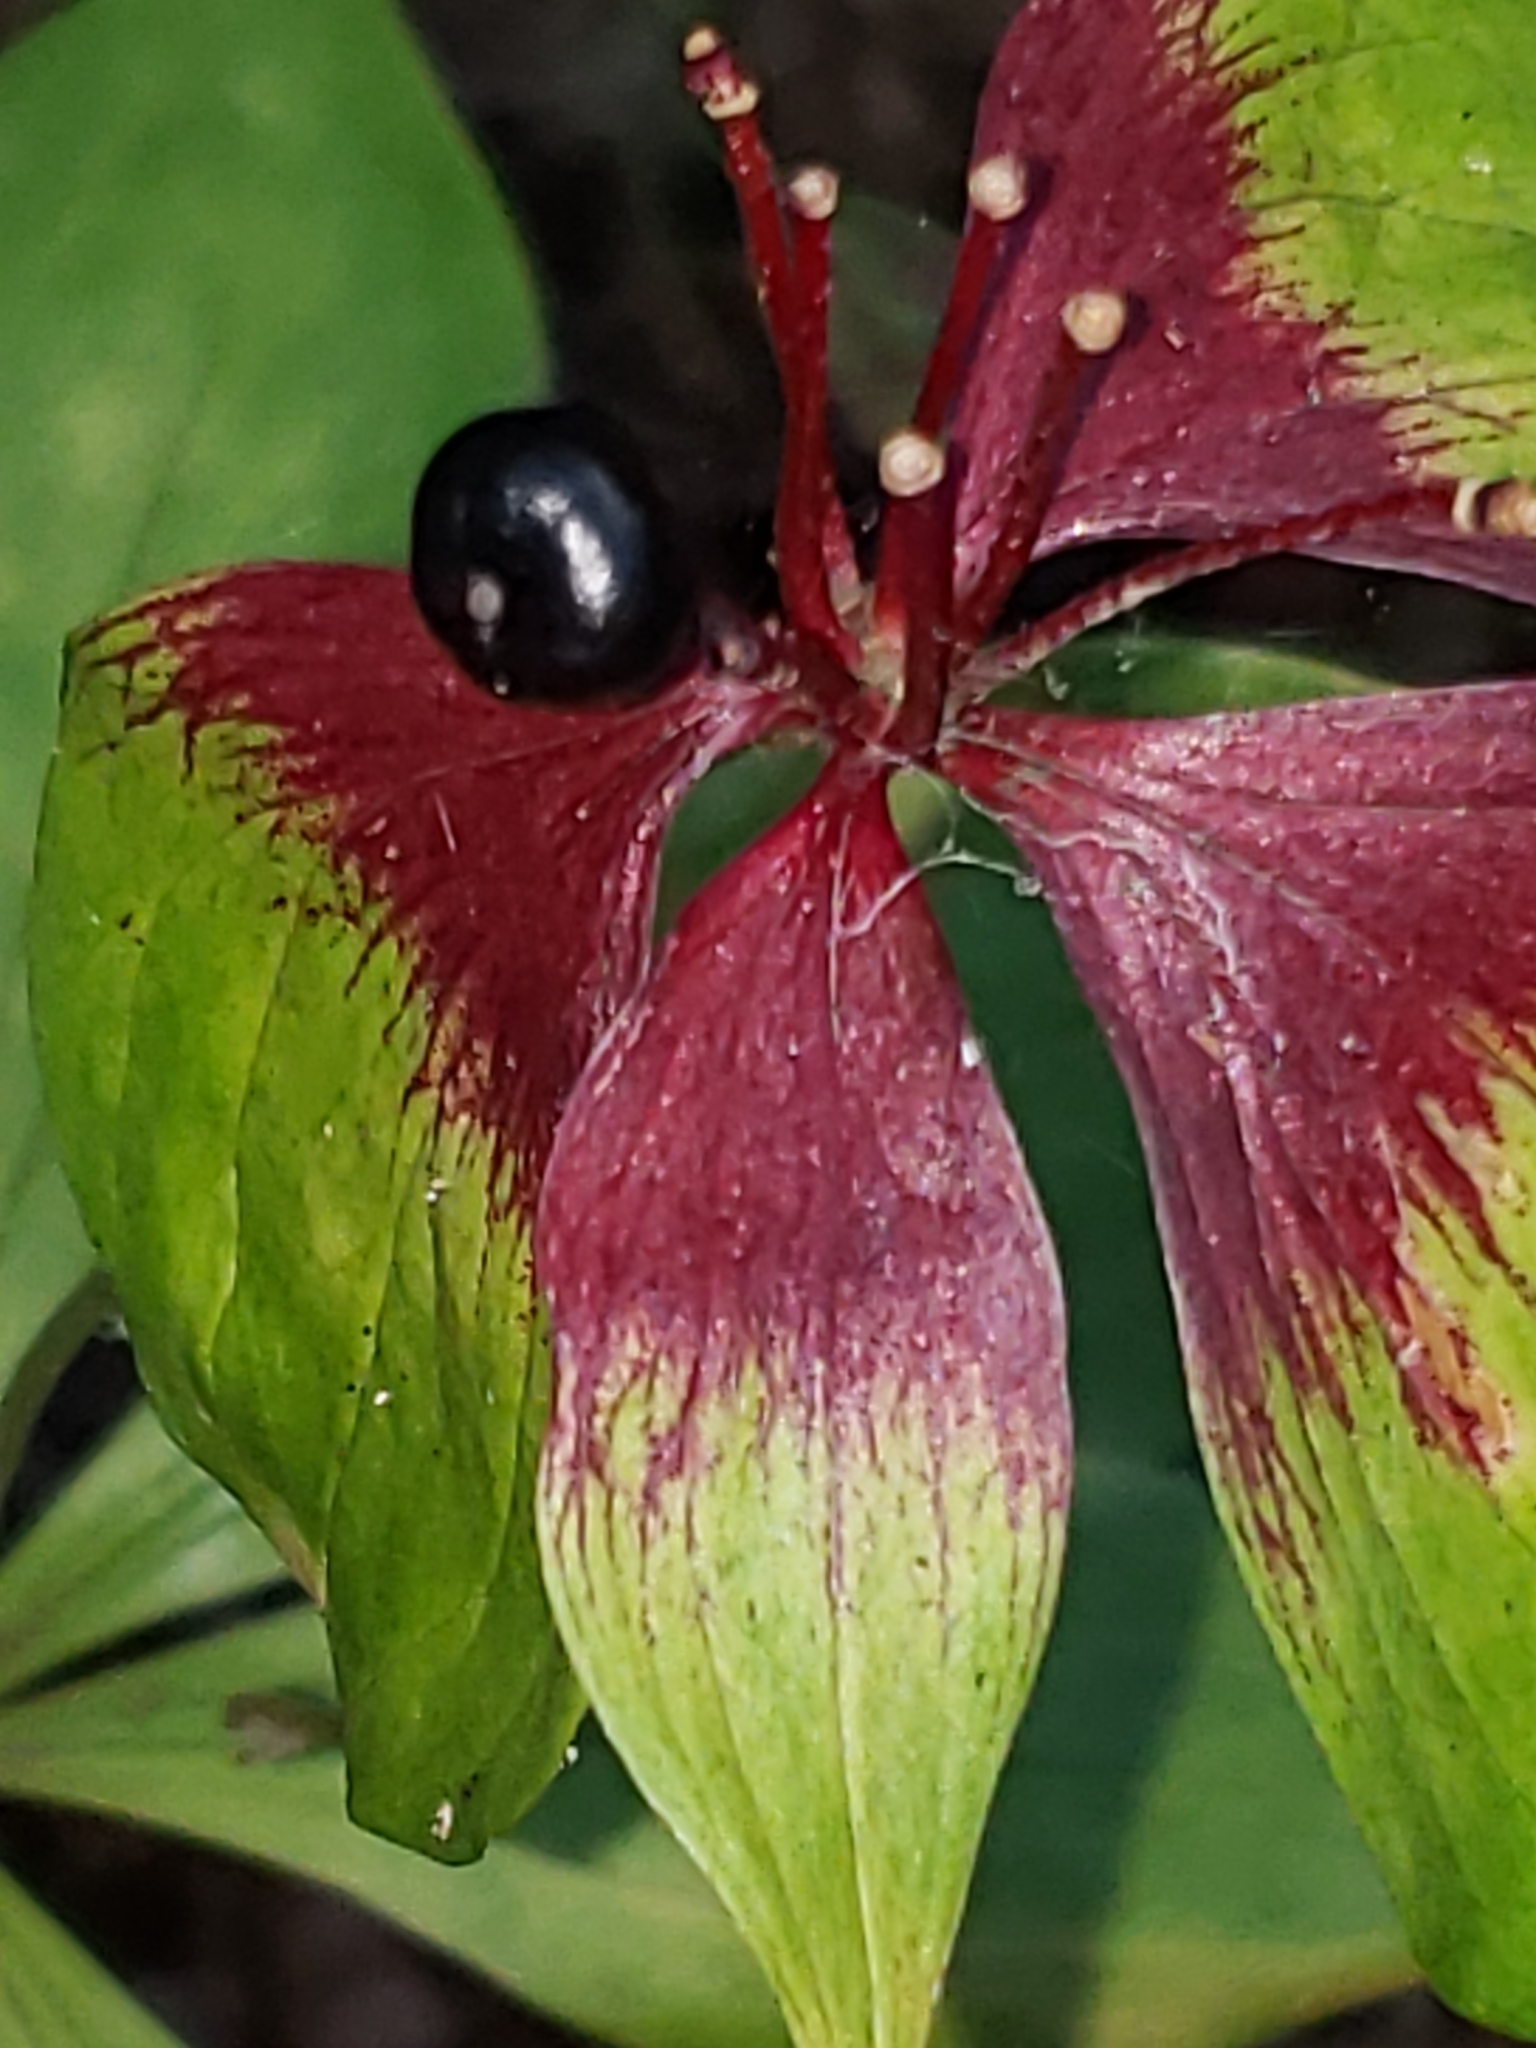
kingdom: Plantae
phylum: Tracheophyta
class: Liliopsida
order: Liliales
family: Liliaceae
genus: Medeola
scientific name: Medeola virginiana
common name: Indian cucumber-root
